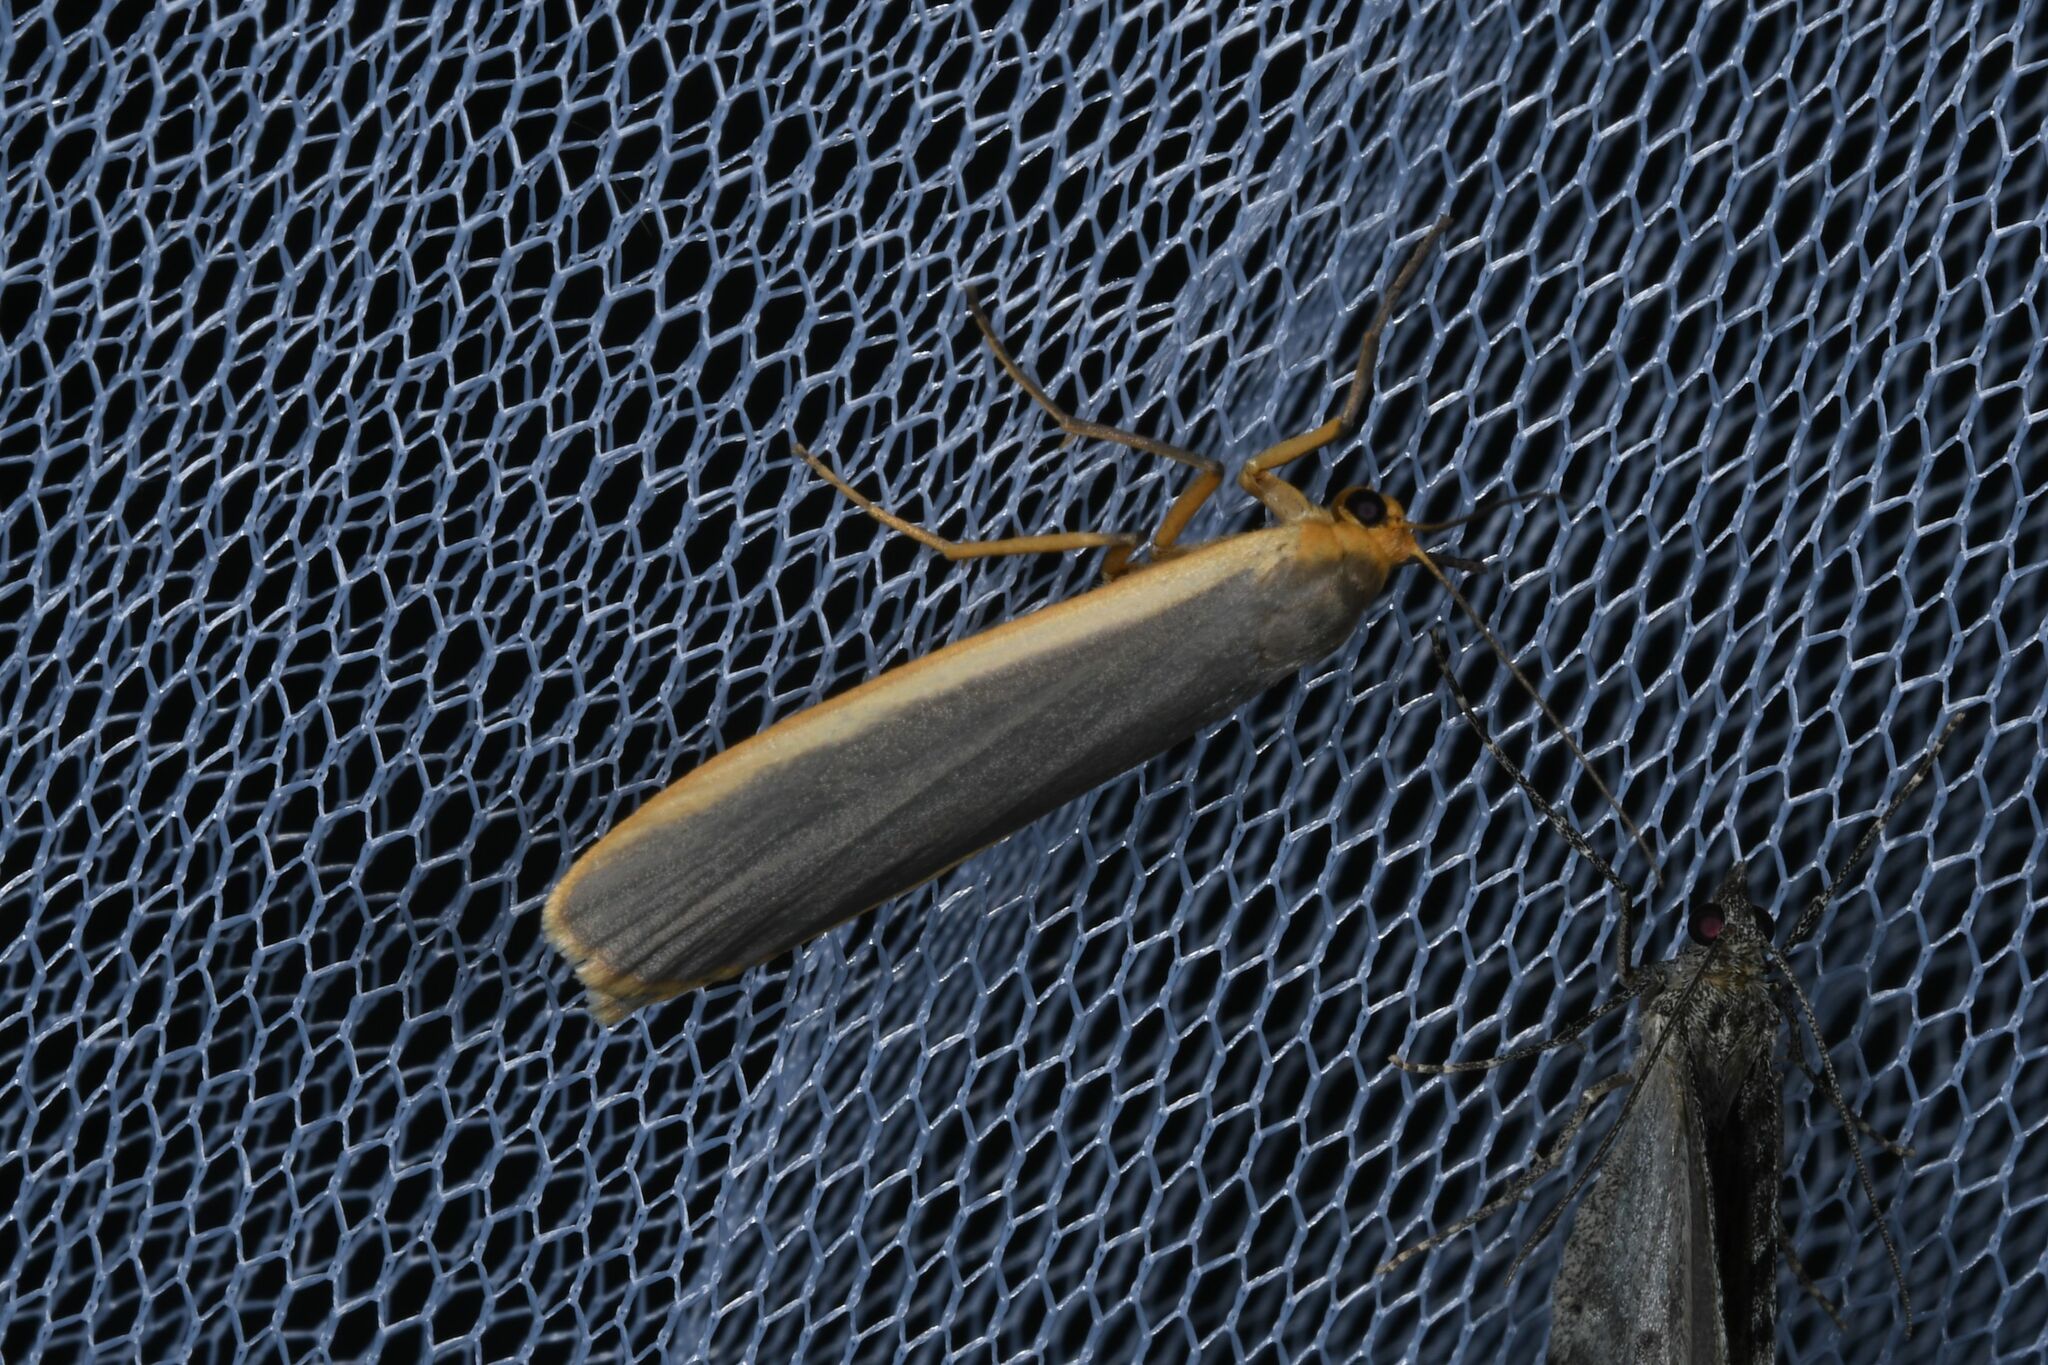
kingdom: Animalia
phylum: Arthropoda
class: Insecta
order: Lepidoptera
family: Erebidae
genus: Nyea
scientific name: Nyea lurideola
